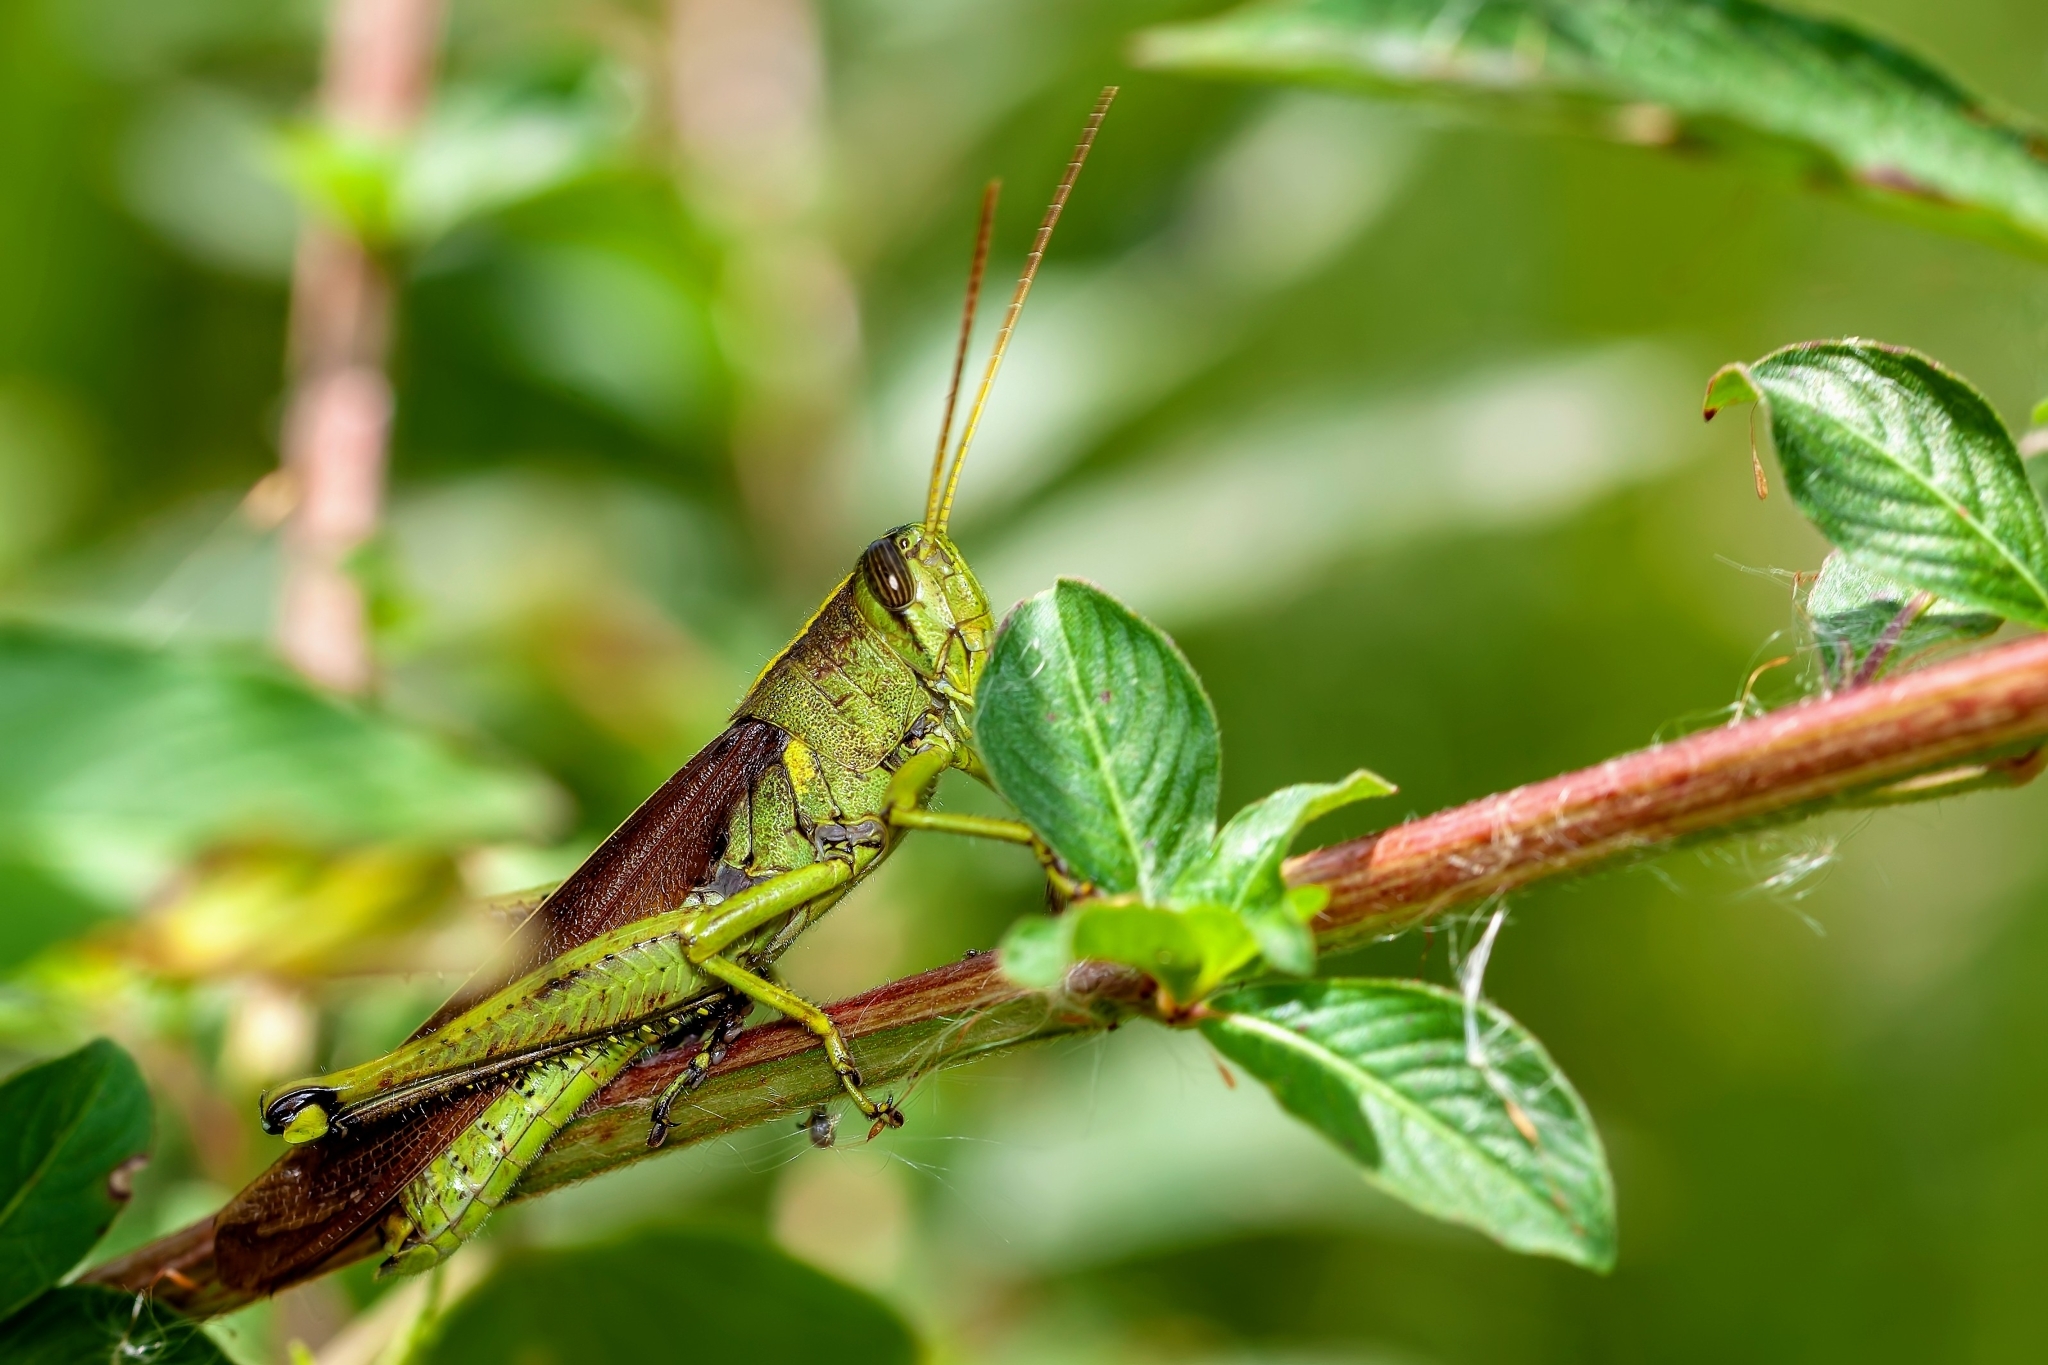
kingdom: Animalia
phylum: Arthropoda
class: Insecta
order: Orthoptera
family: Acrididae
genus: Schistocerca
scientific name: Schistocerca obscura
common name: Obscure bird grasshopper
